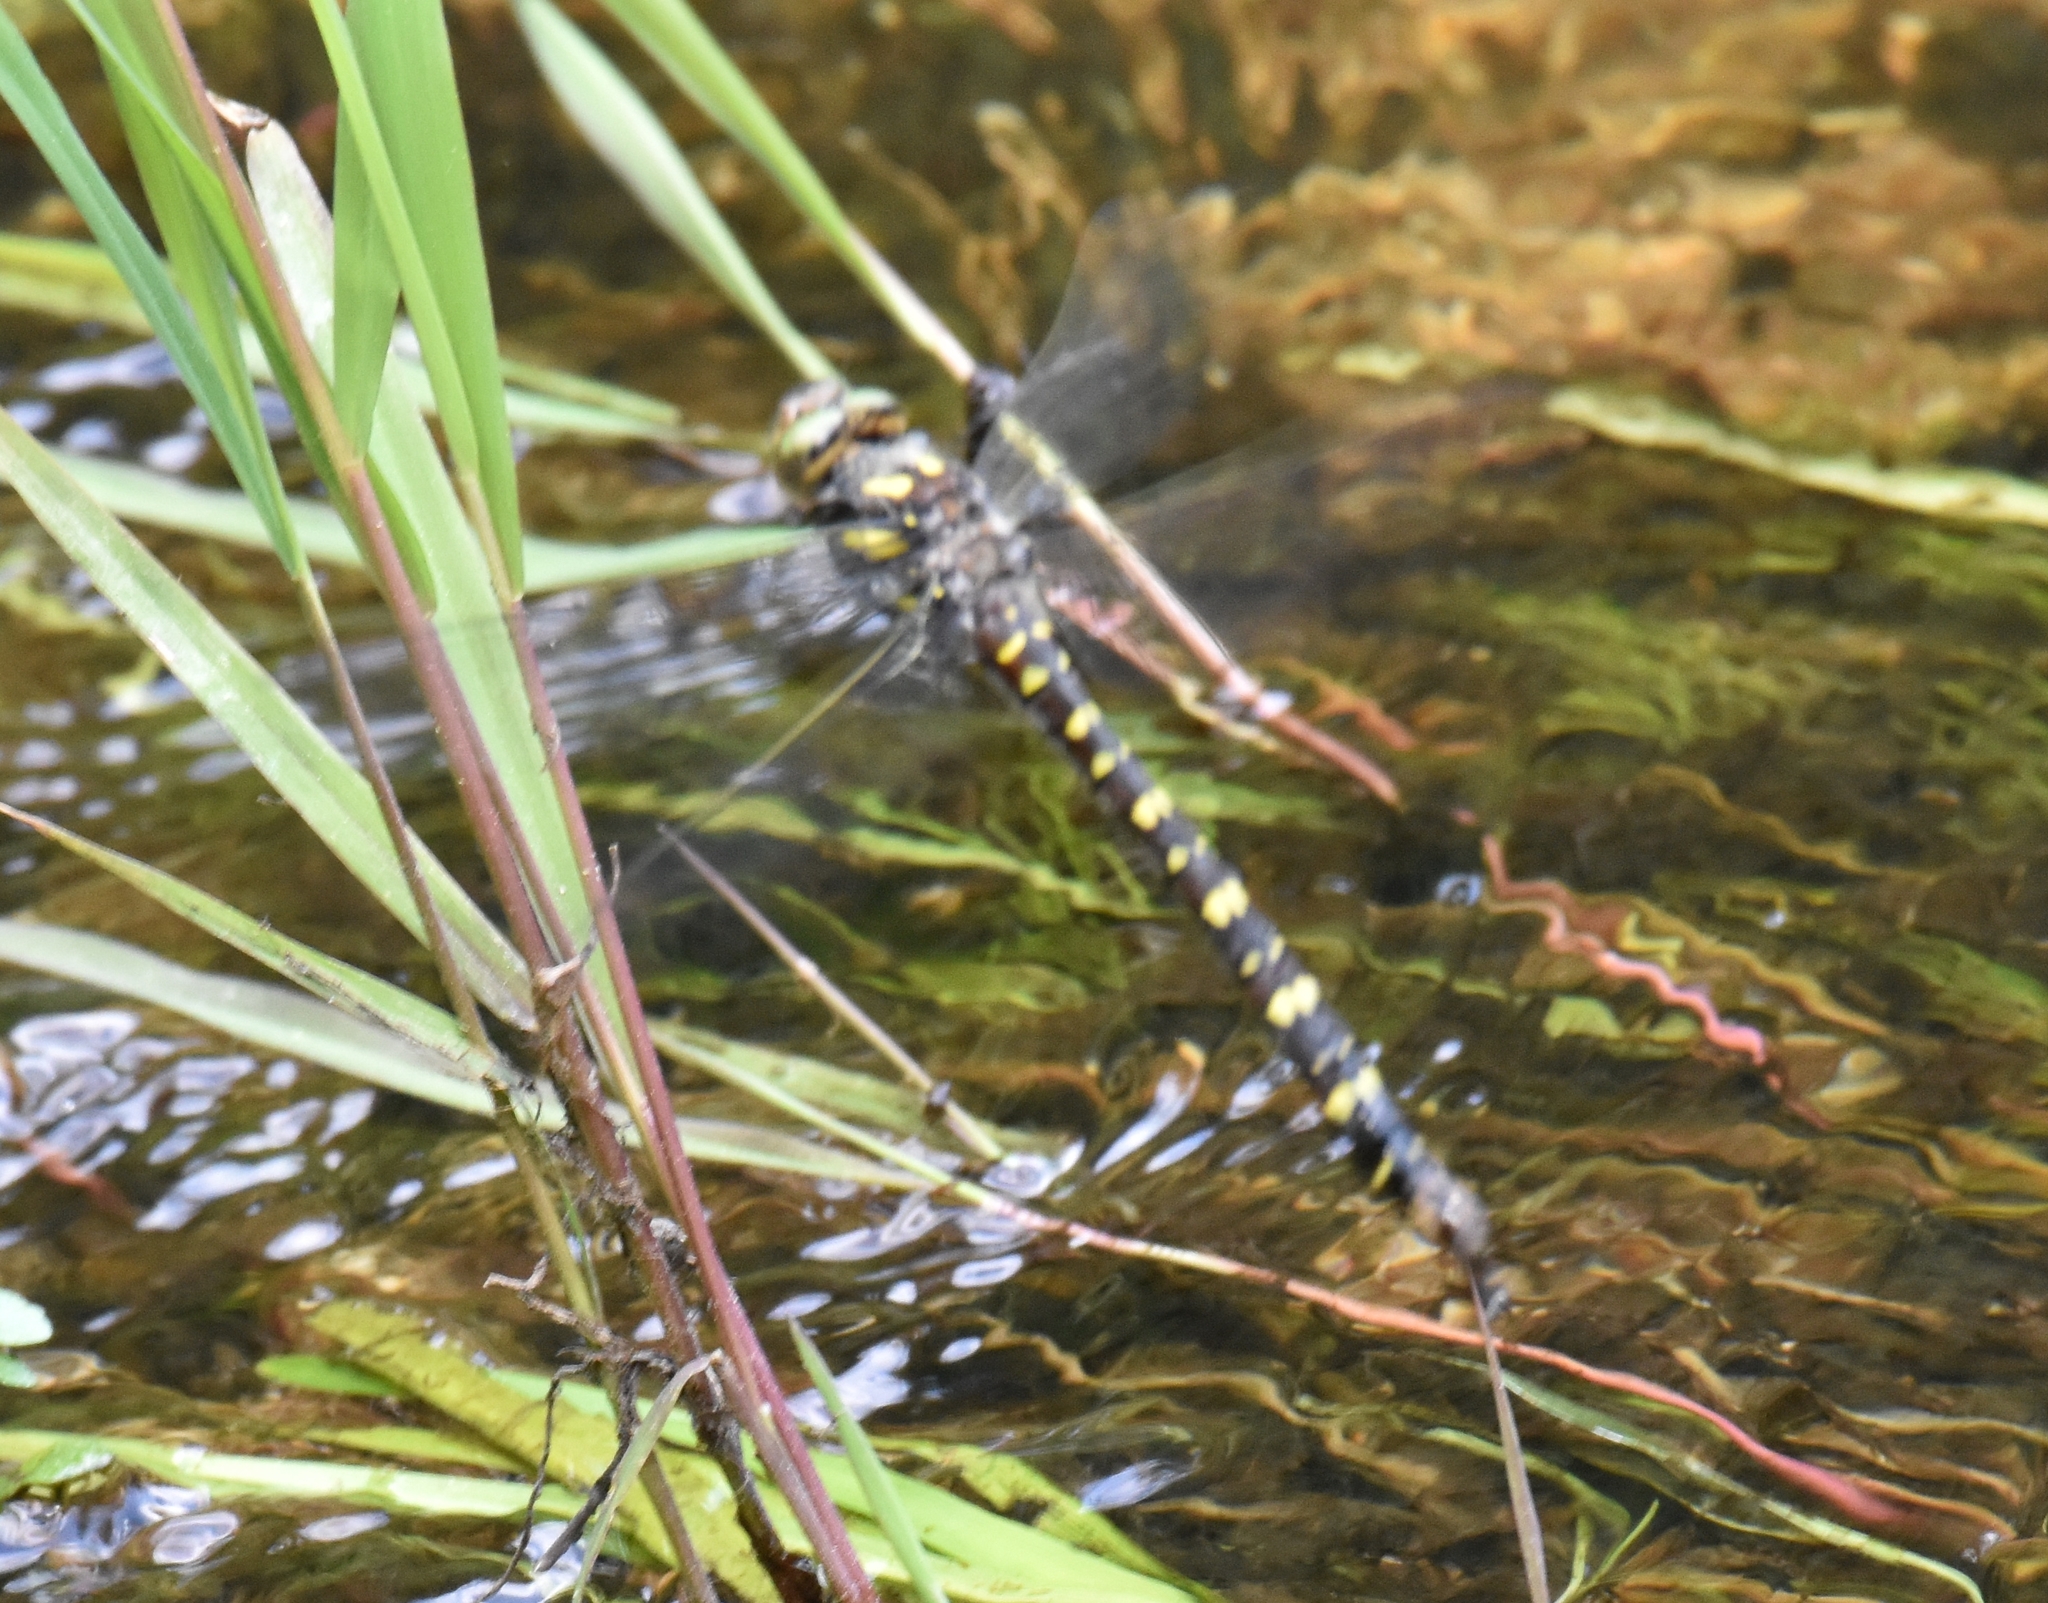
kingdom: Animalia
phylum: Arthropoda
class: Insecta
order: Odonata
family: Cordulegastridae
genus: Cordulegaster
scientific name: Cordulegaster maculata
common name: Twin-spotted spiketail
